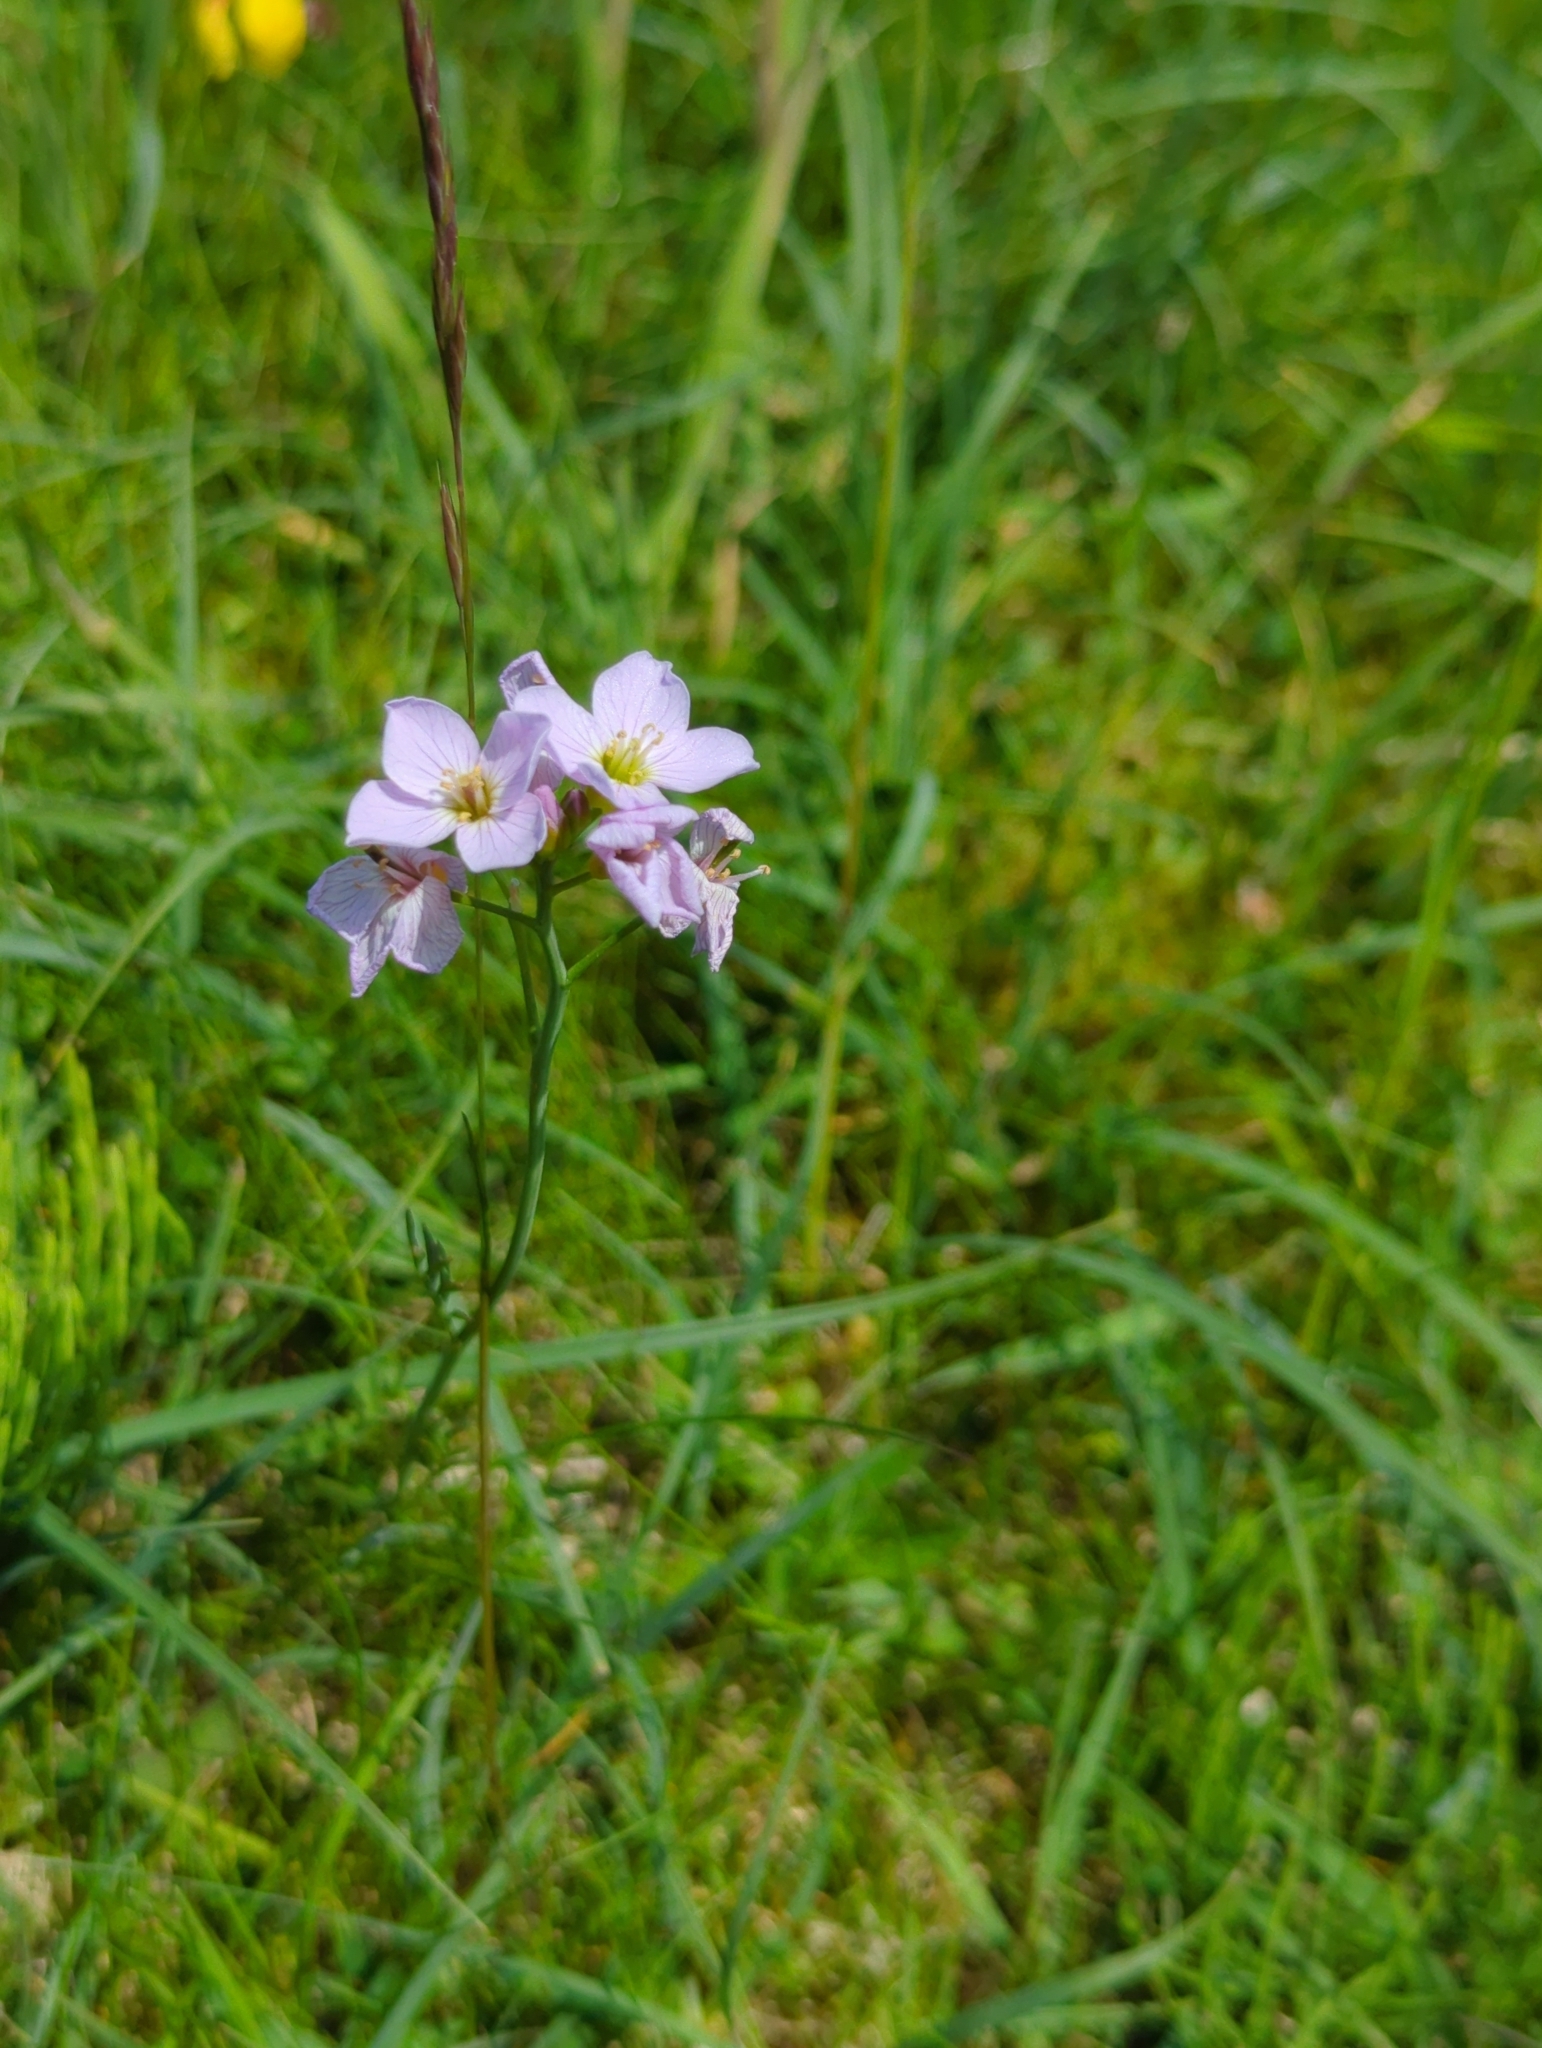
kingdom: Plantae
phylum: Tracheophyta
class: Magnoliopsida
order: Brassicales
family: Brassicaceae
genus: Cardamine
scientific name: Cardamine pratensis
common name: Cuckoo flower
